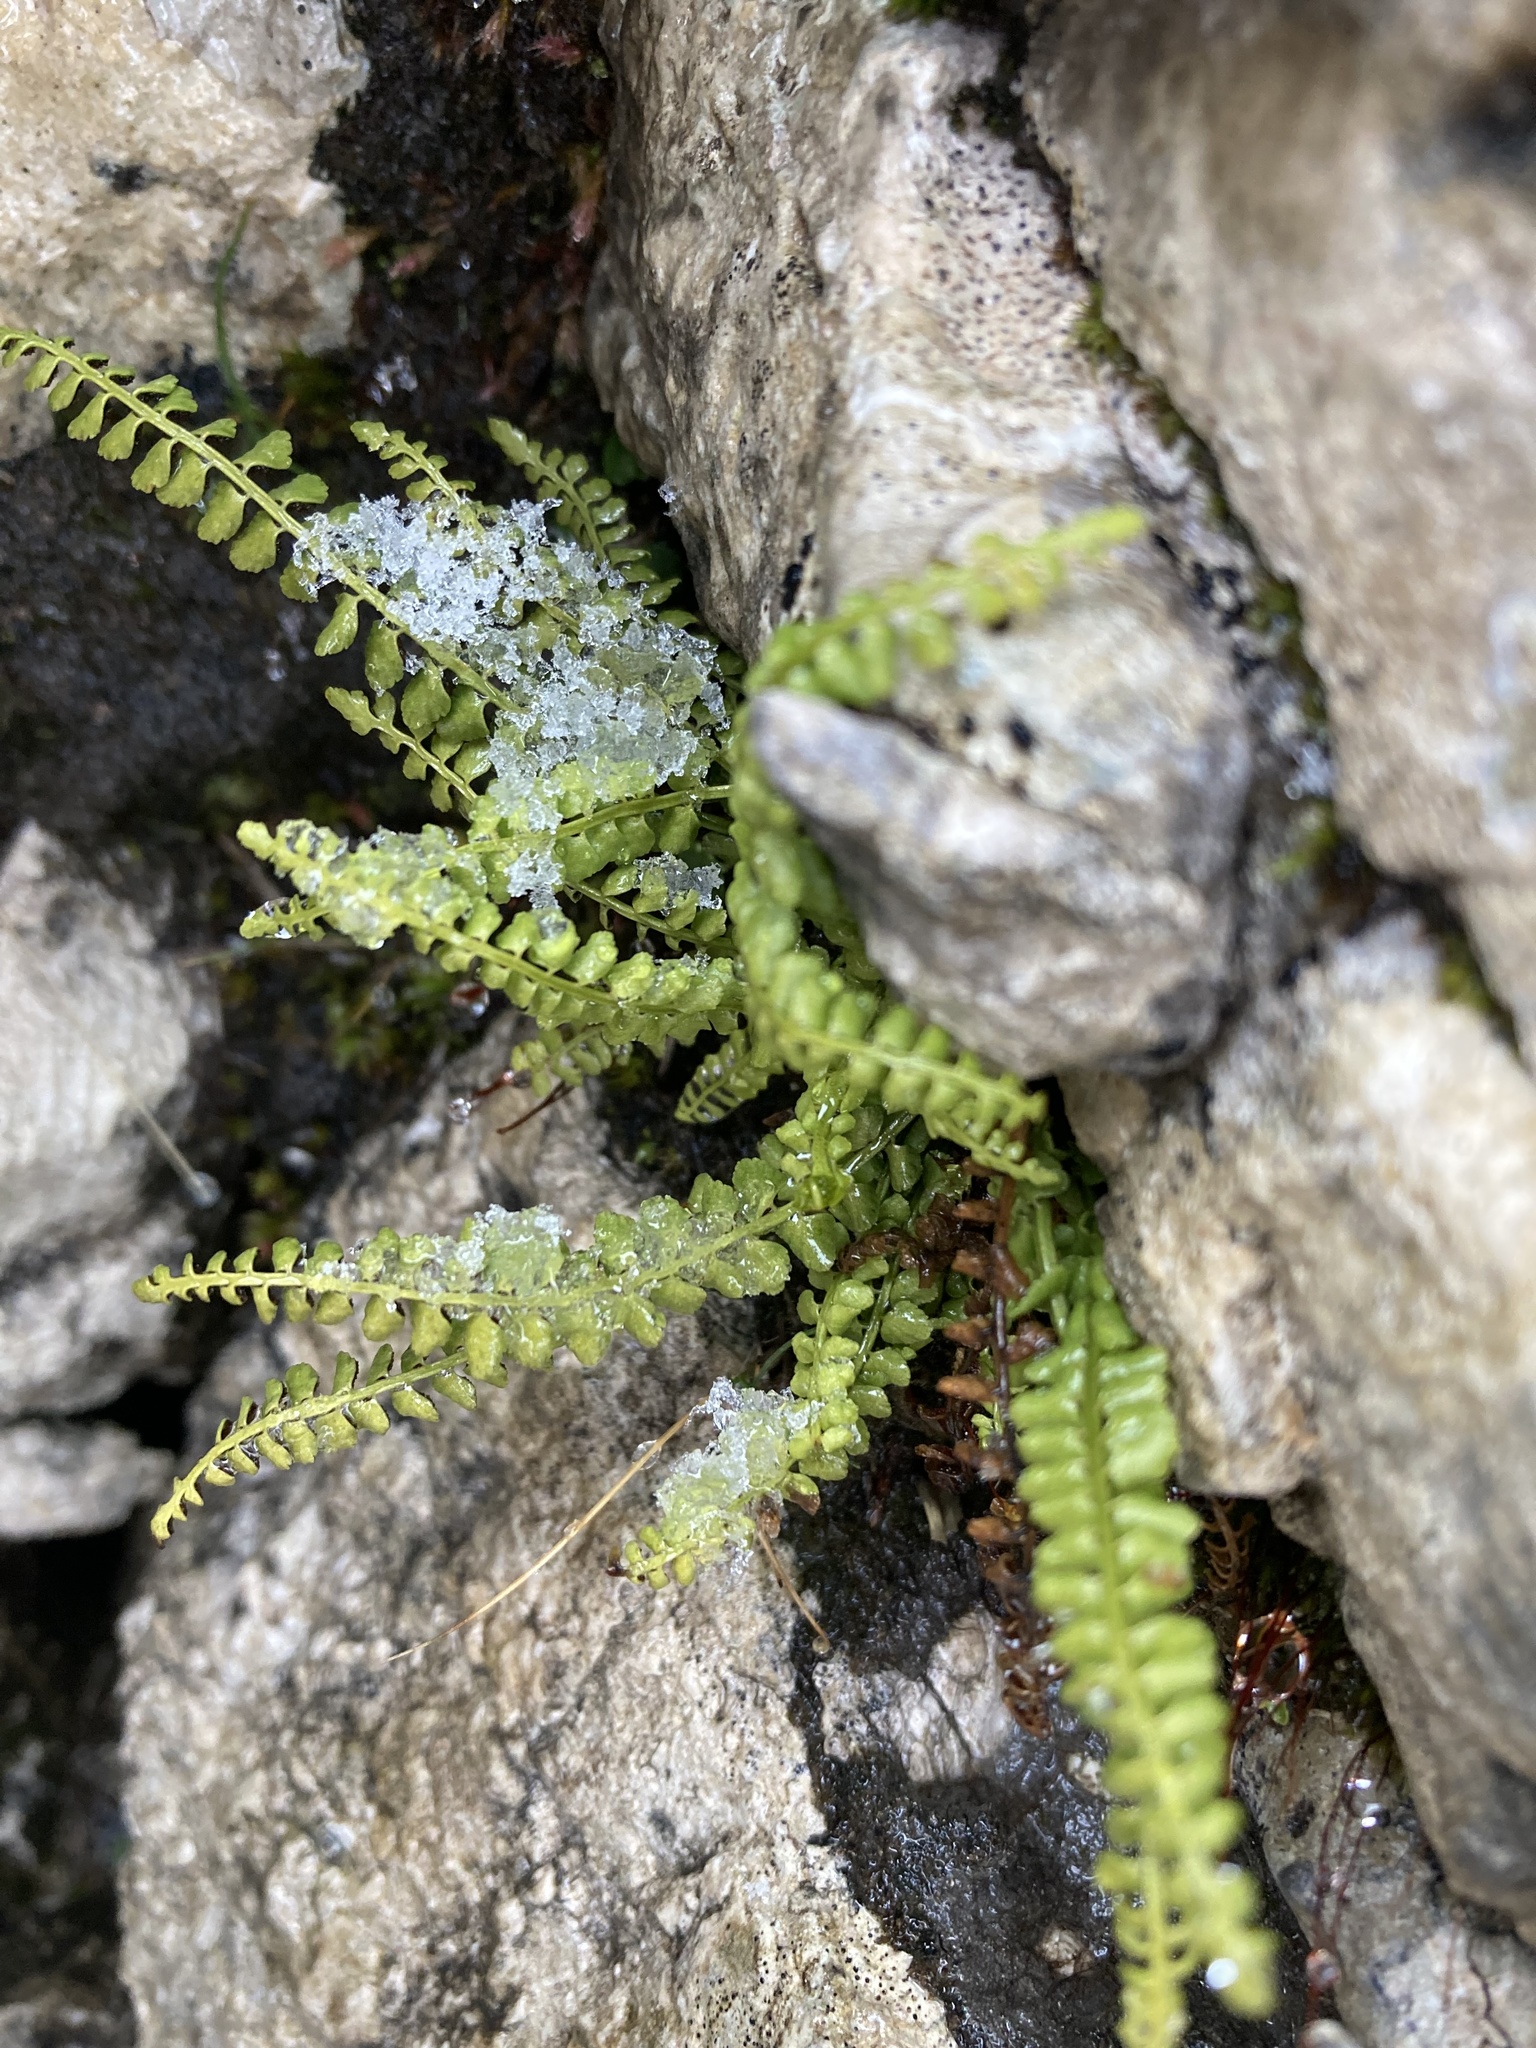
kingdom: Plantae
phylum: Tracheophyta
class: Polypodiopsida
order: Polypodiales
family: Aspleniaceae
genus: Asplenium
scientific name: Asplenium viride
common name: Green spleenwort
